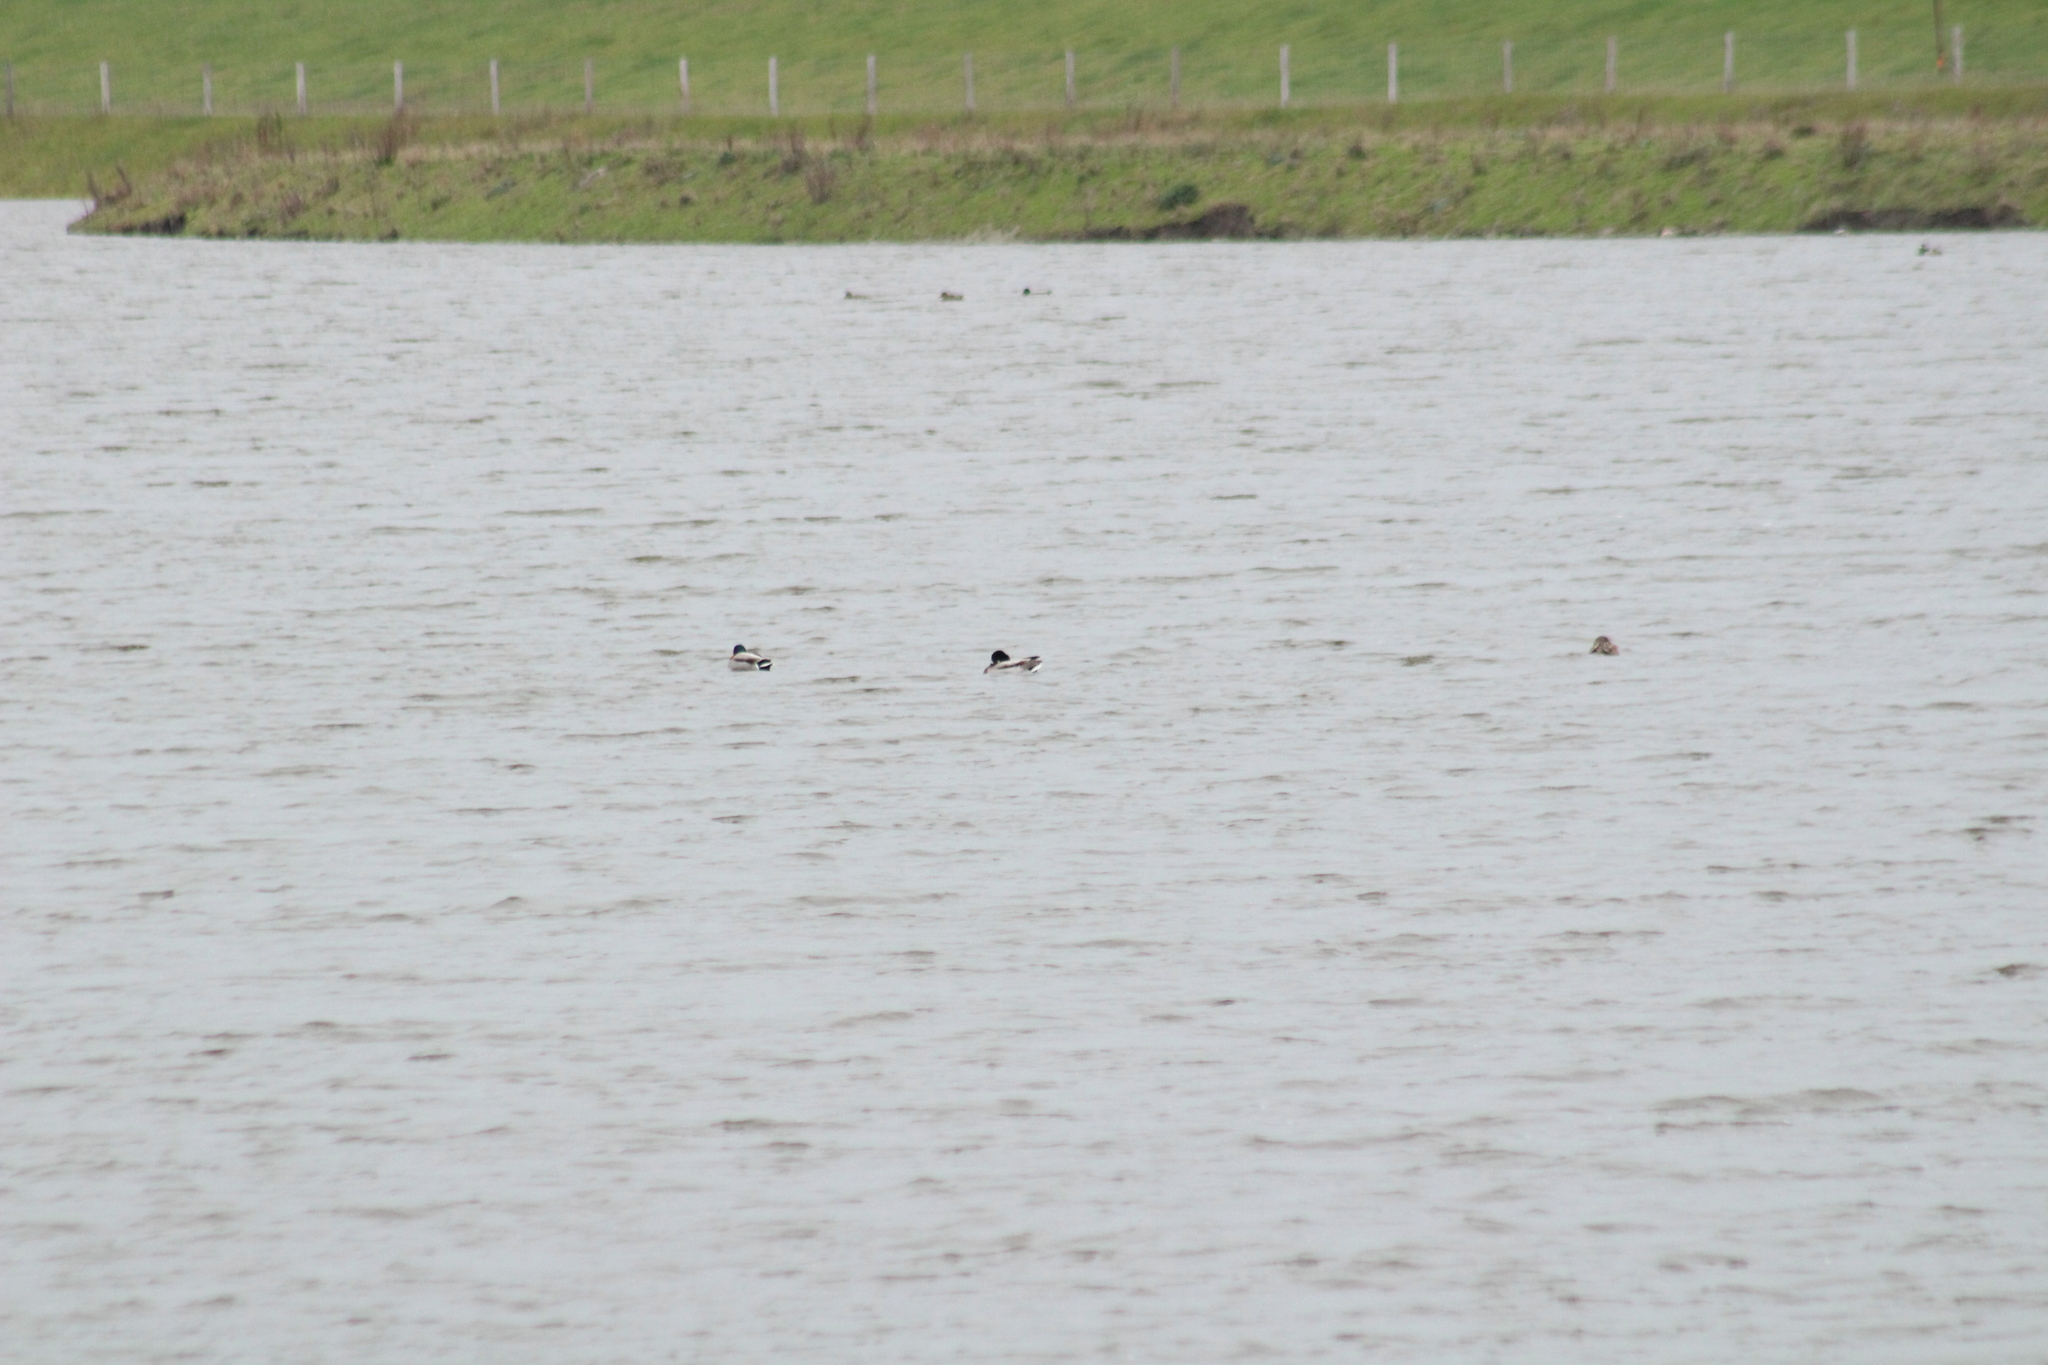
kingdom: Animalia
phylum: Chordata
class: Aves
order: Anseriformes
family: Anatidae
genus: Anas
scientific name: Anas platyrhynchos
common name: Mallard
